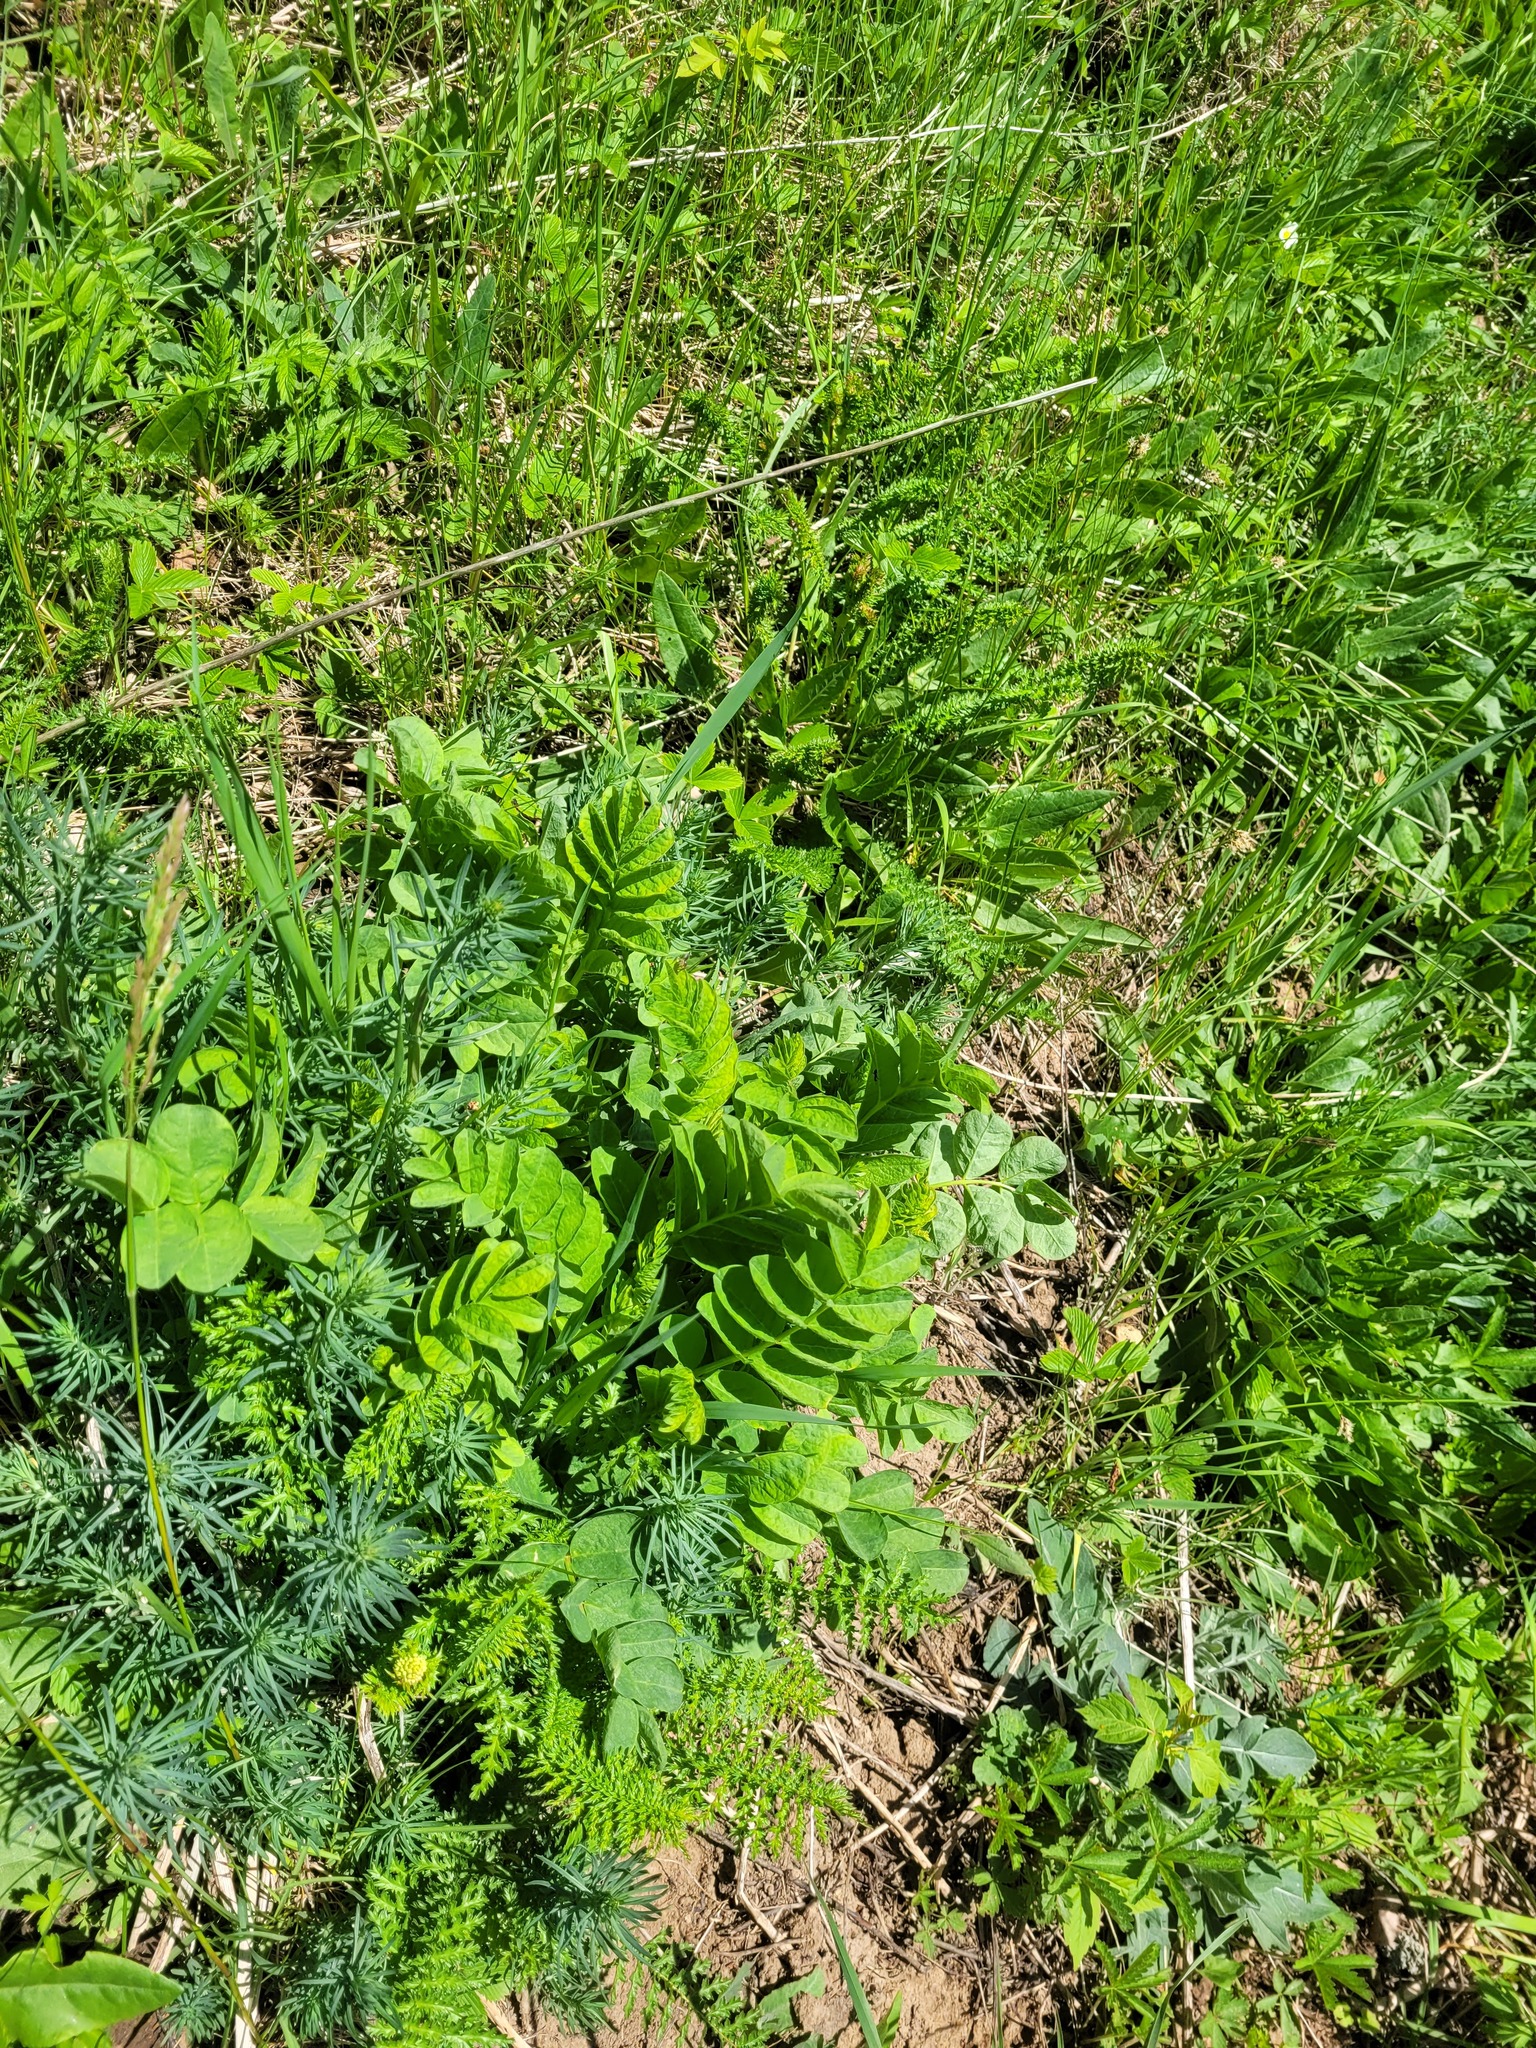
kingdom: Plantae
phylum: Tracheophyta
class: Magnoliopsida
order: Fabales
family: Fabaceae
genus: Astragalus
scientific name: Astragalus glycyphyllos
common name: Wild liquorice
